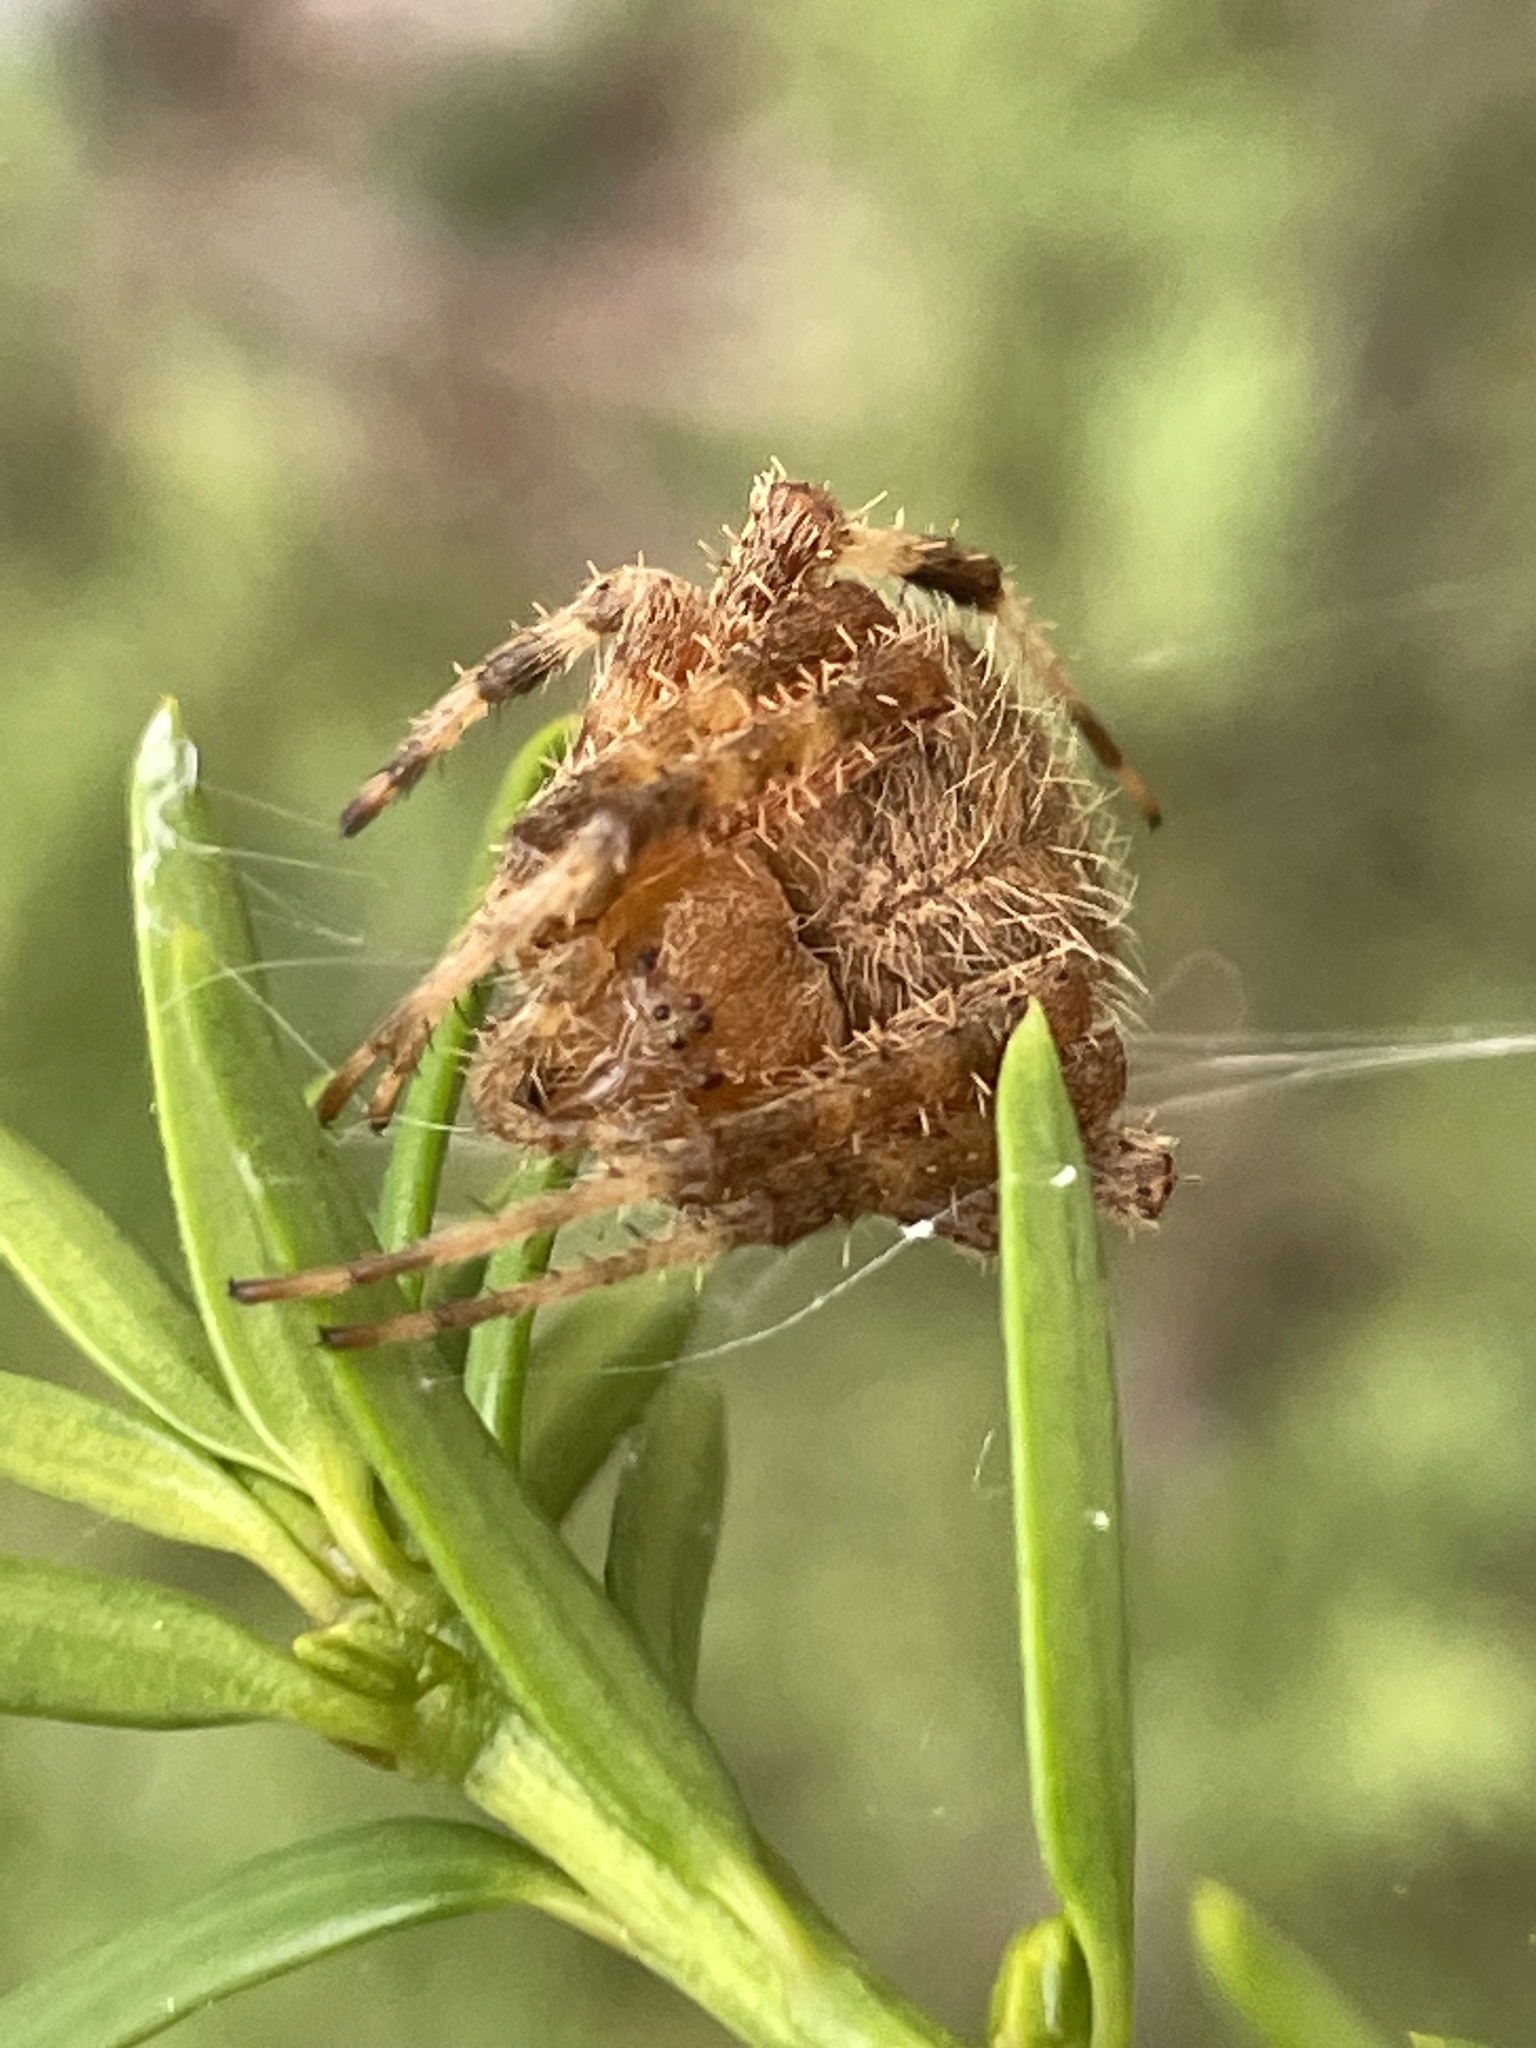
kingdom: Animalia
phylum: Arthropoda
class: Arachnida
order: Araneae
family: Araneidae
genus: Neoscona
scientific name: Neoscona crucifera
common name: Spotted orbweaver
